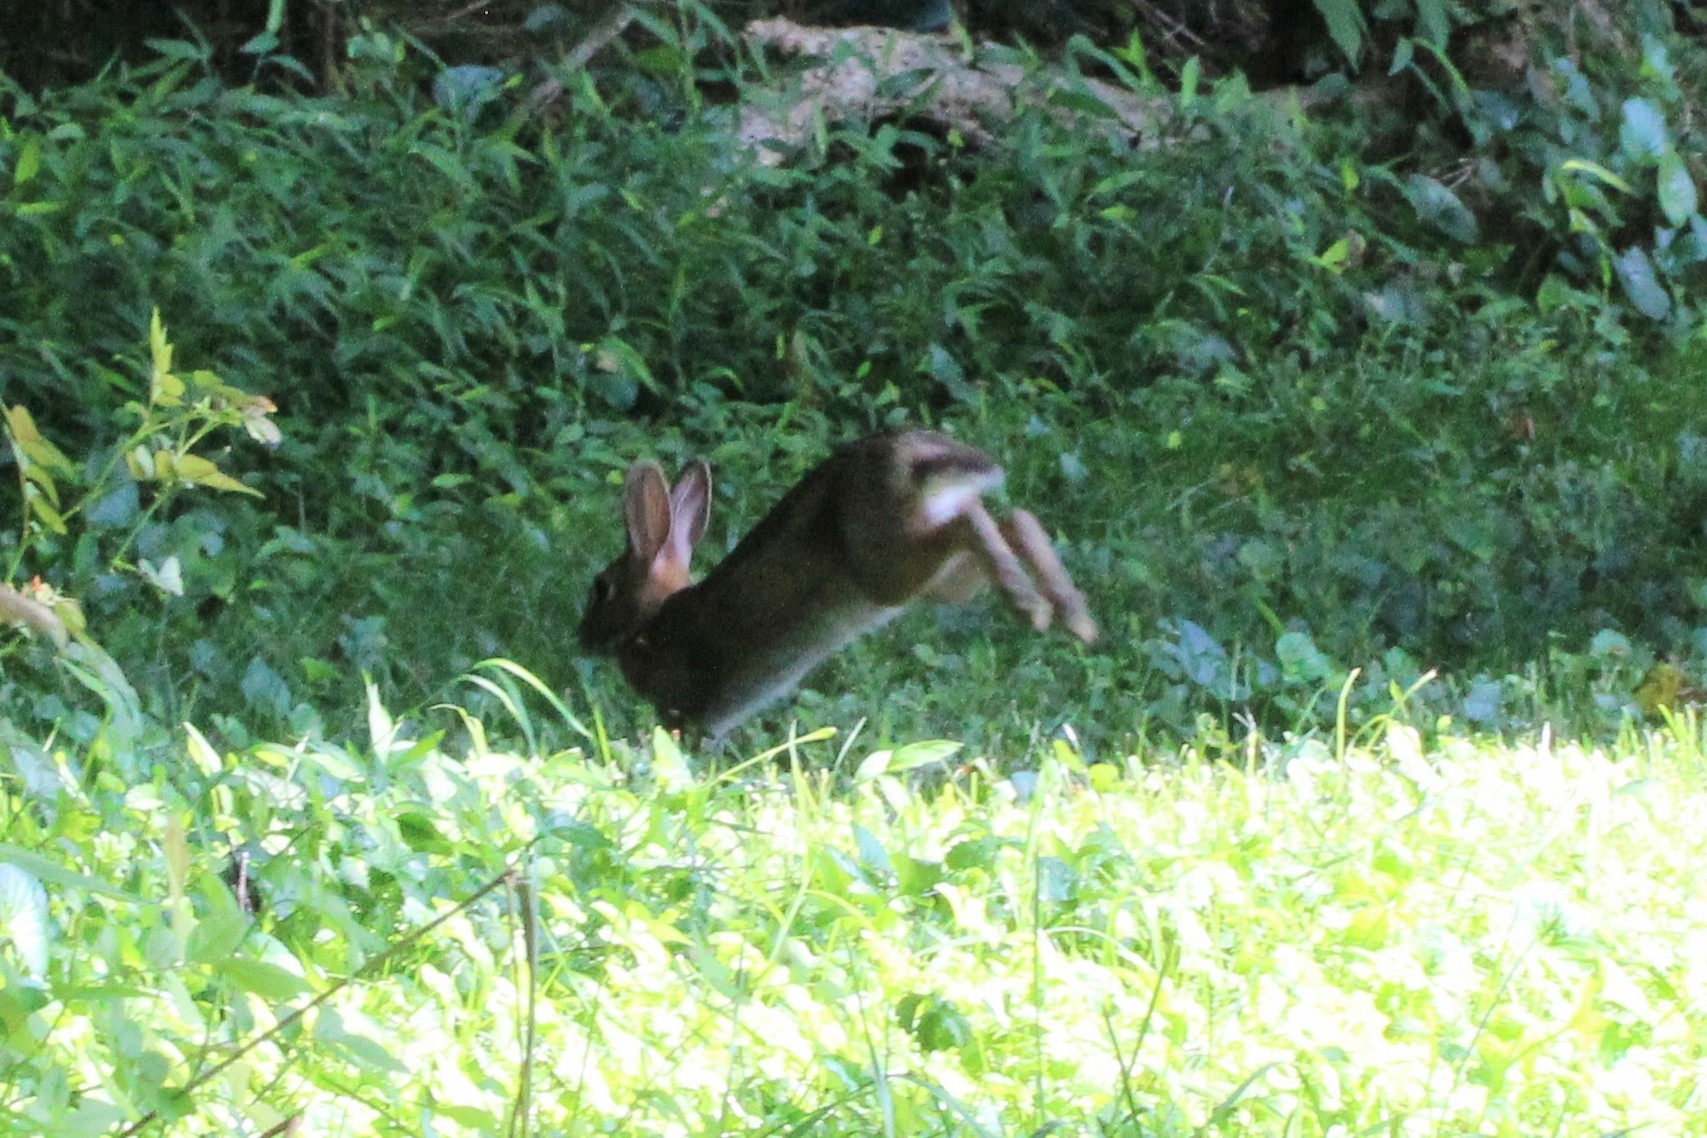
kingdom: Animalia
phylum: Chordata
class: Mammalia
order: Lagomorpha
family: Leporidae
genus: Sylvilagus
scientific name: Sylvilagus floridanus
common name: Eastern cottontail
